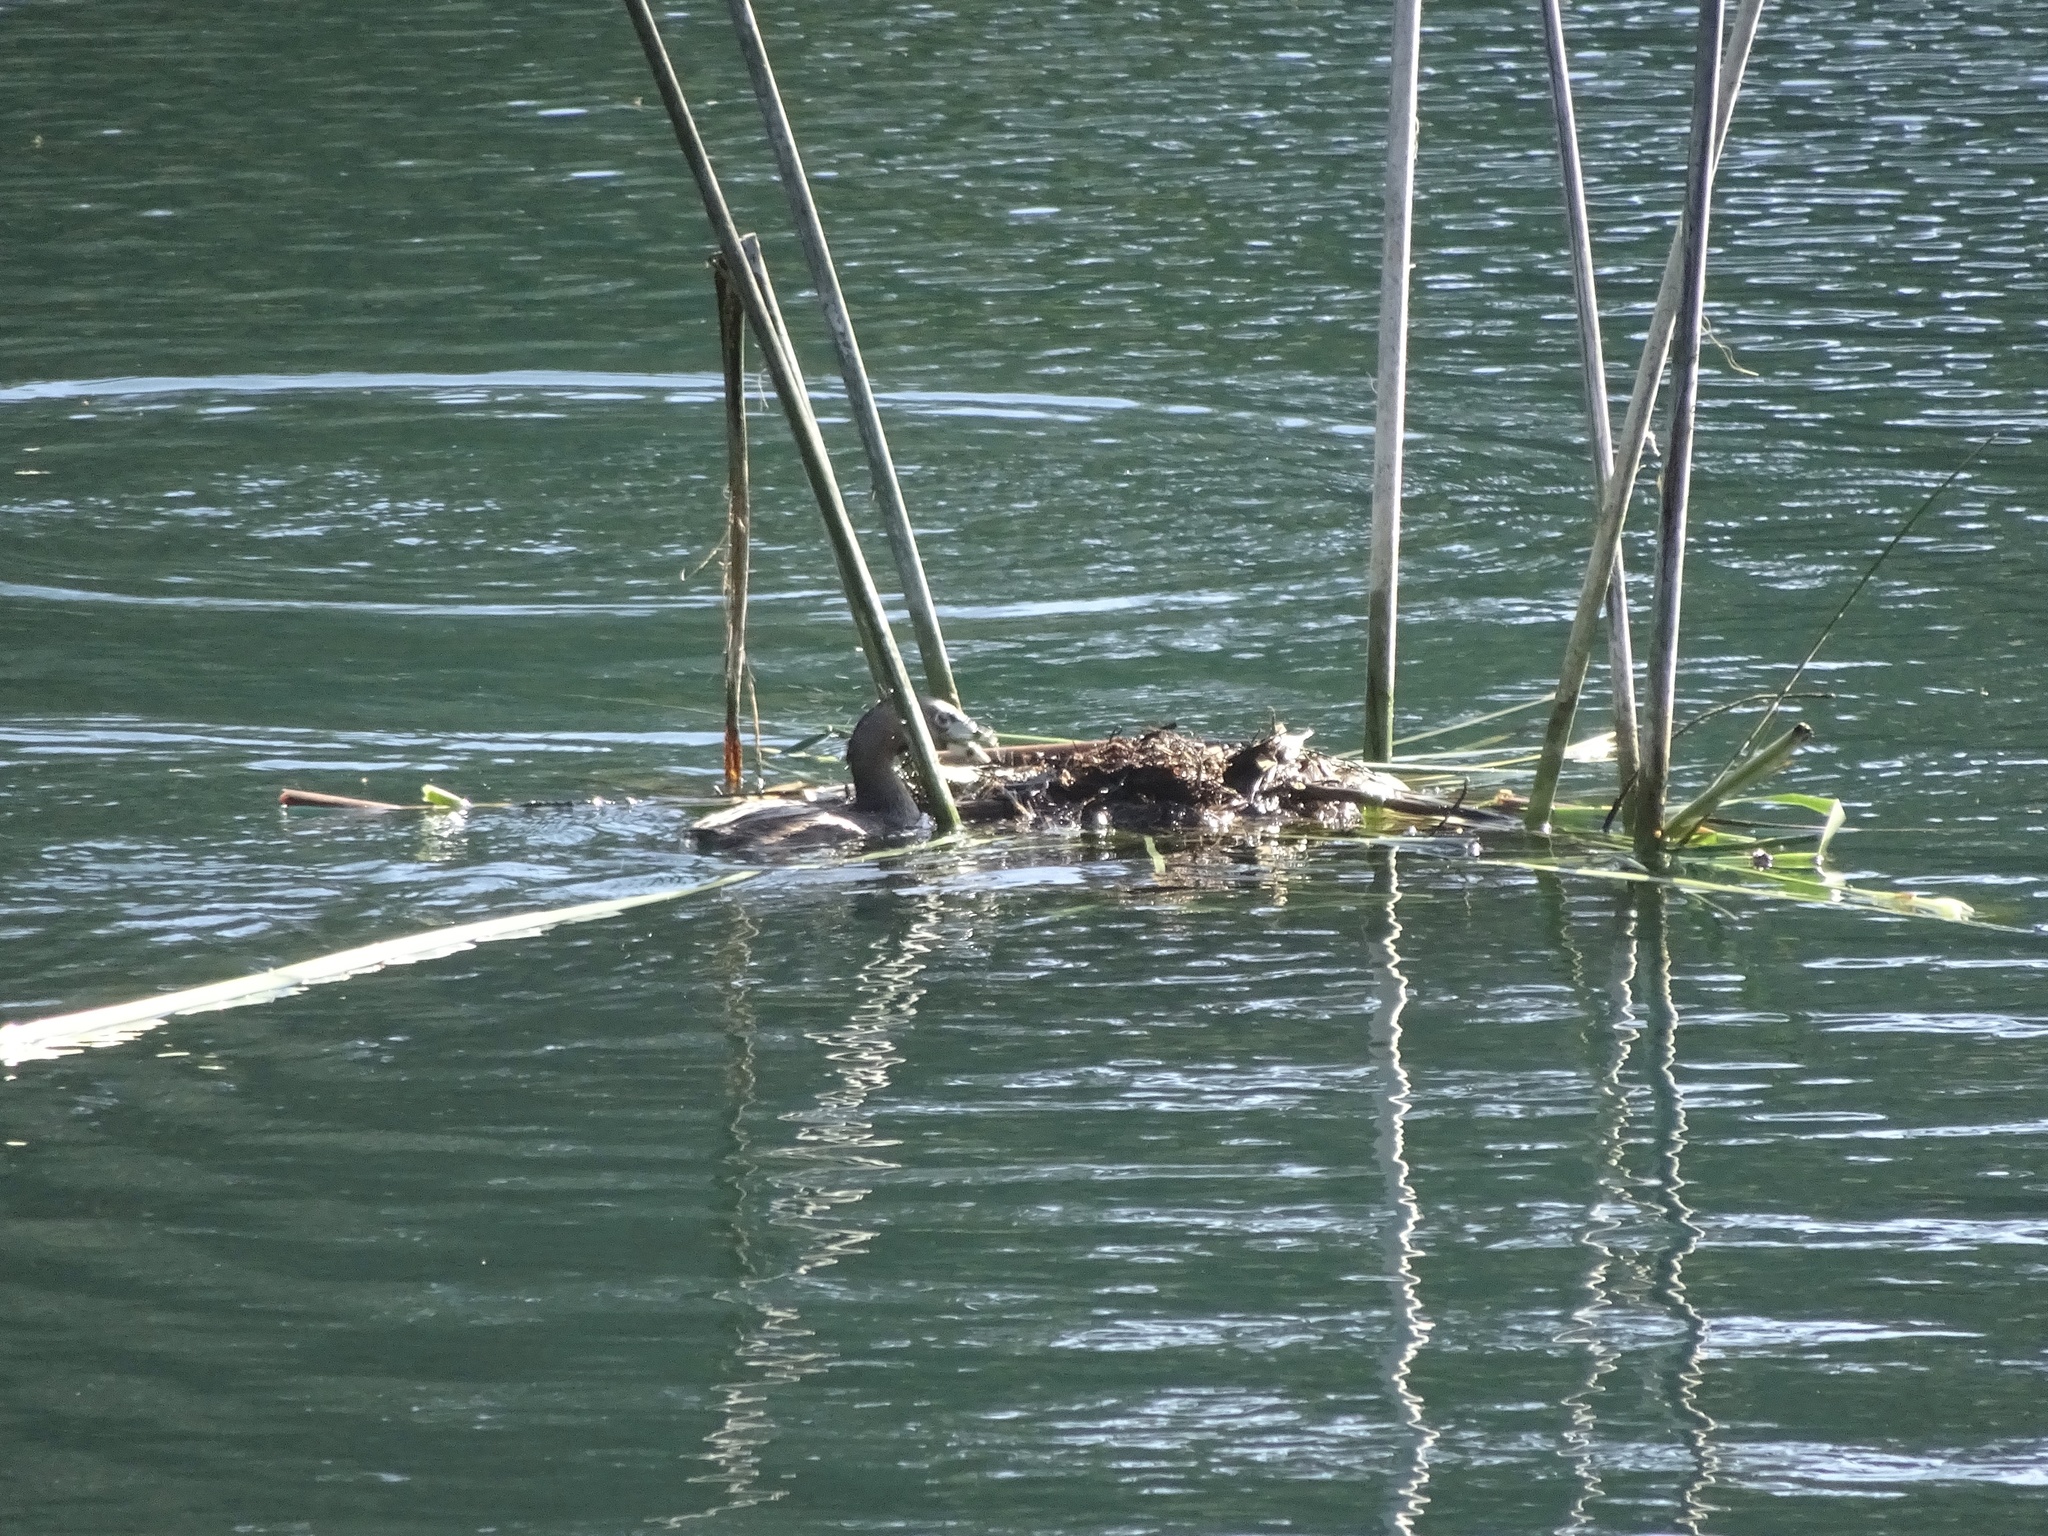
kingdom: Animalia
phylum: Chordata
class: Aves
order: Podicipediformes
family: Podicipedidae
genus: Podilymbus
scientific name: Podilymbus podiceps
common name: Pied-billed grebe
